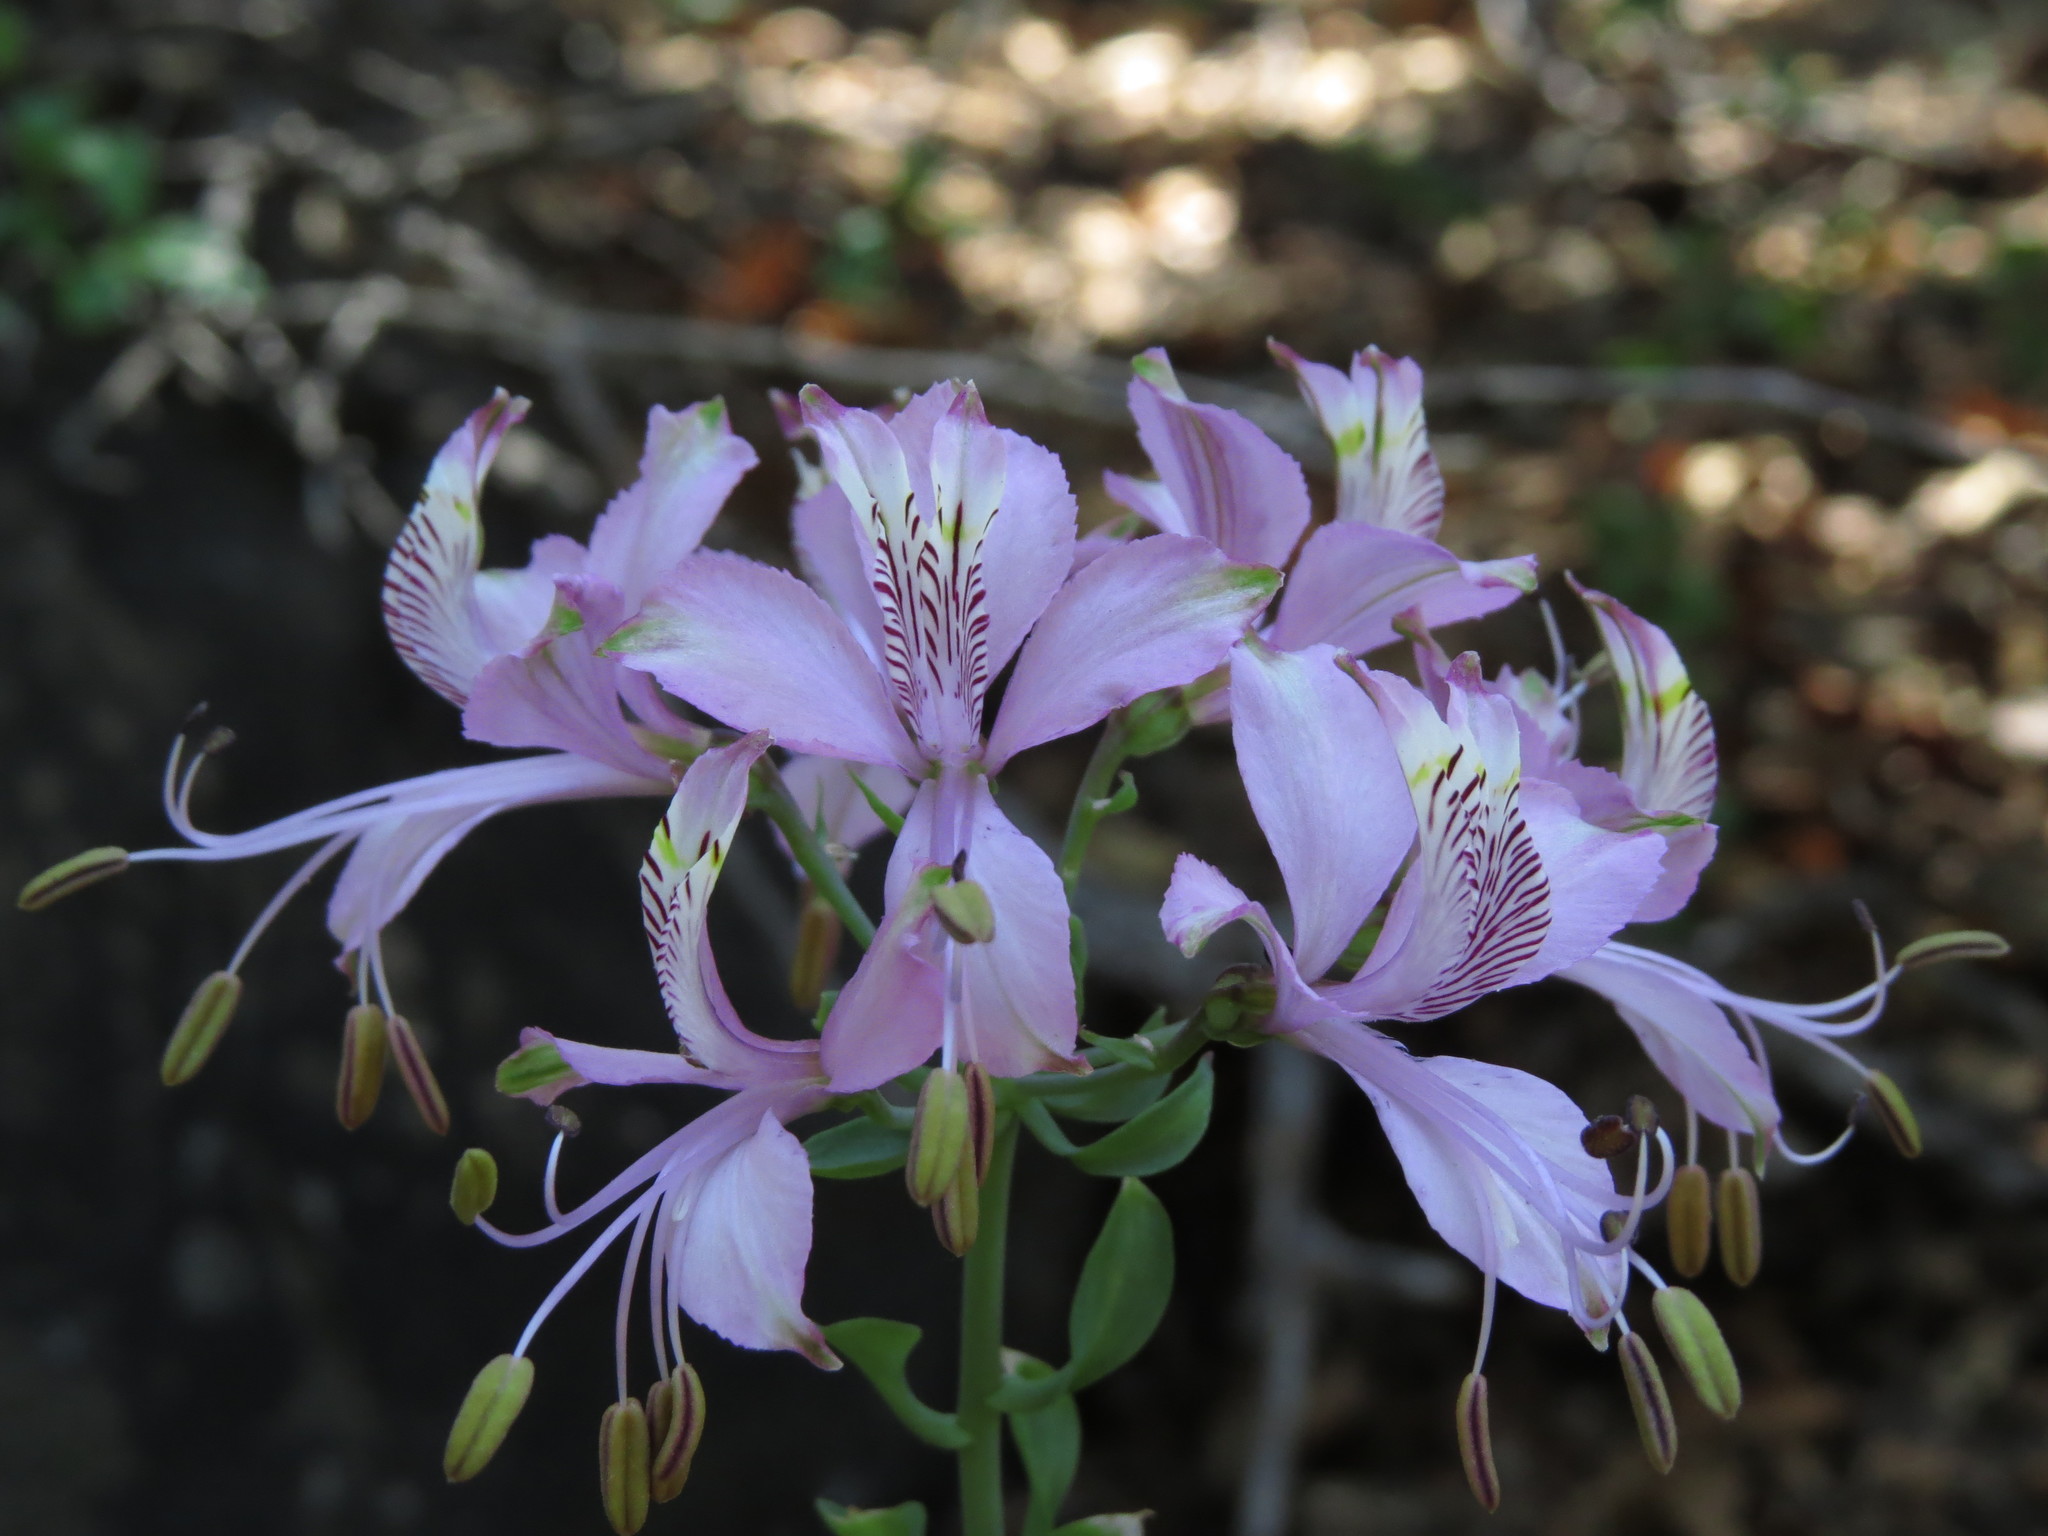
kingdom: Plantae
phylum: Tracheophyta
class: Liliopsida
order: Liliales
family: Alstroemeriaceae
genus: Alstroemeria
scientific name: Alstroemeria zoellneri
